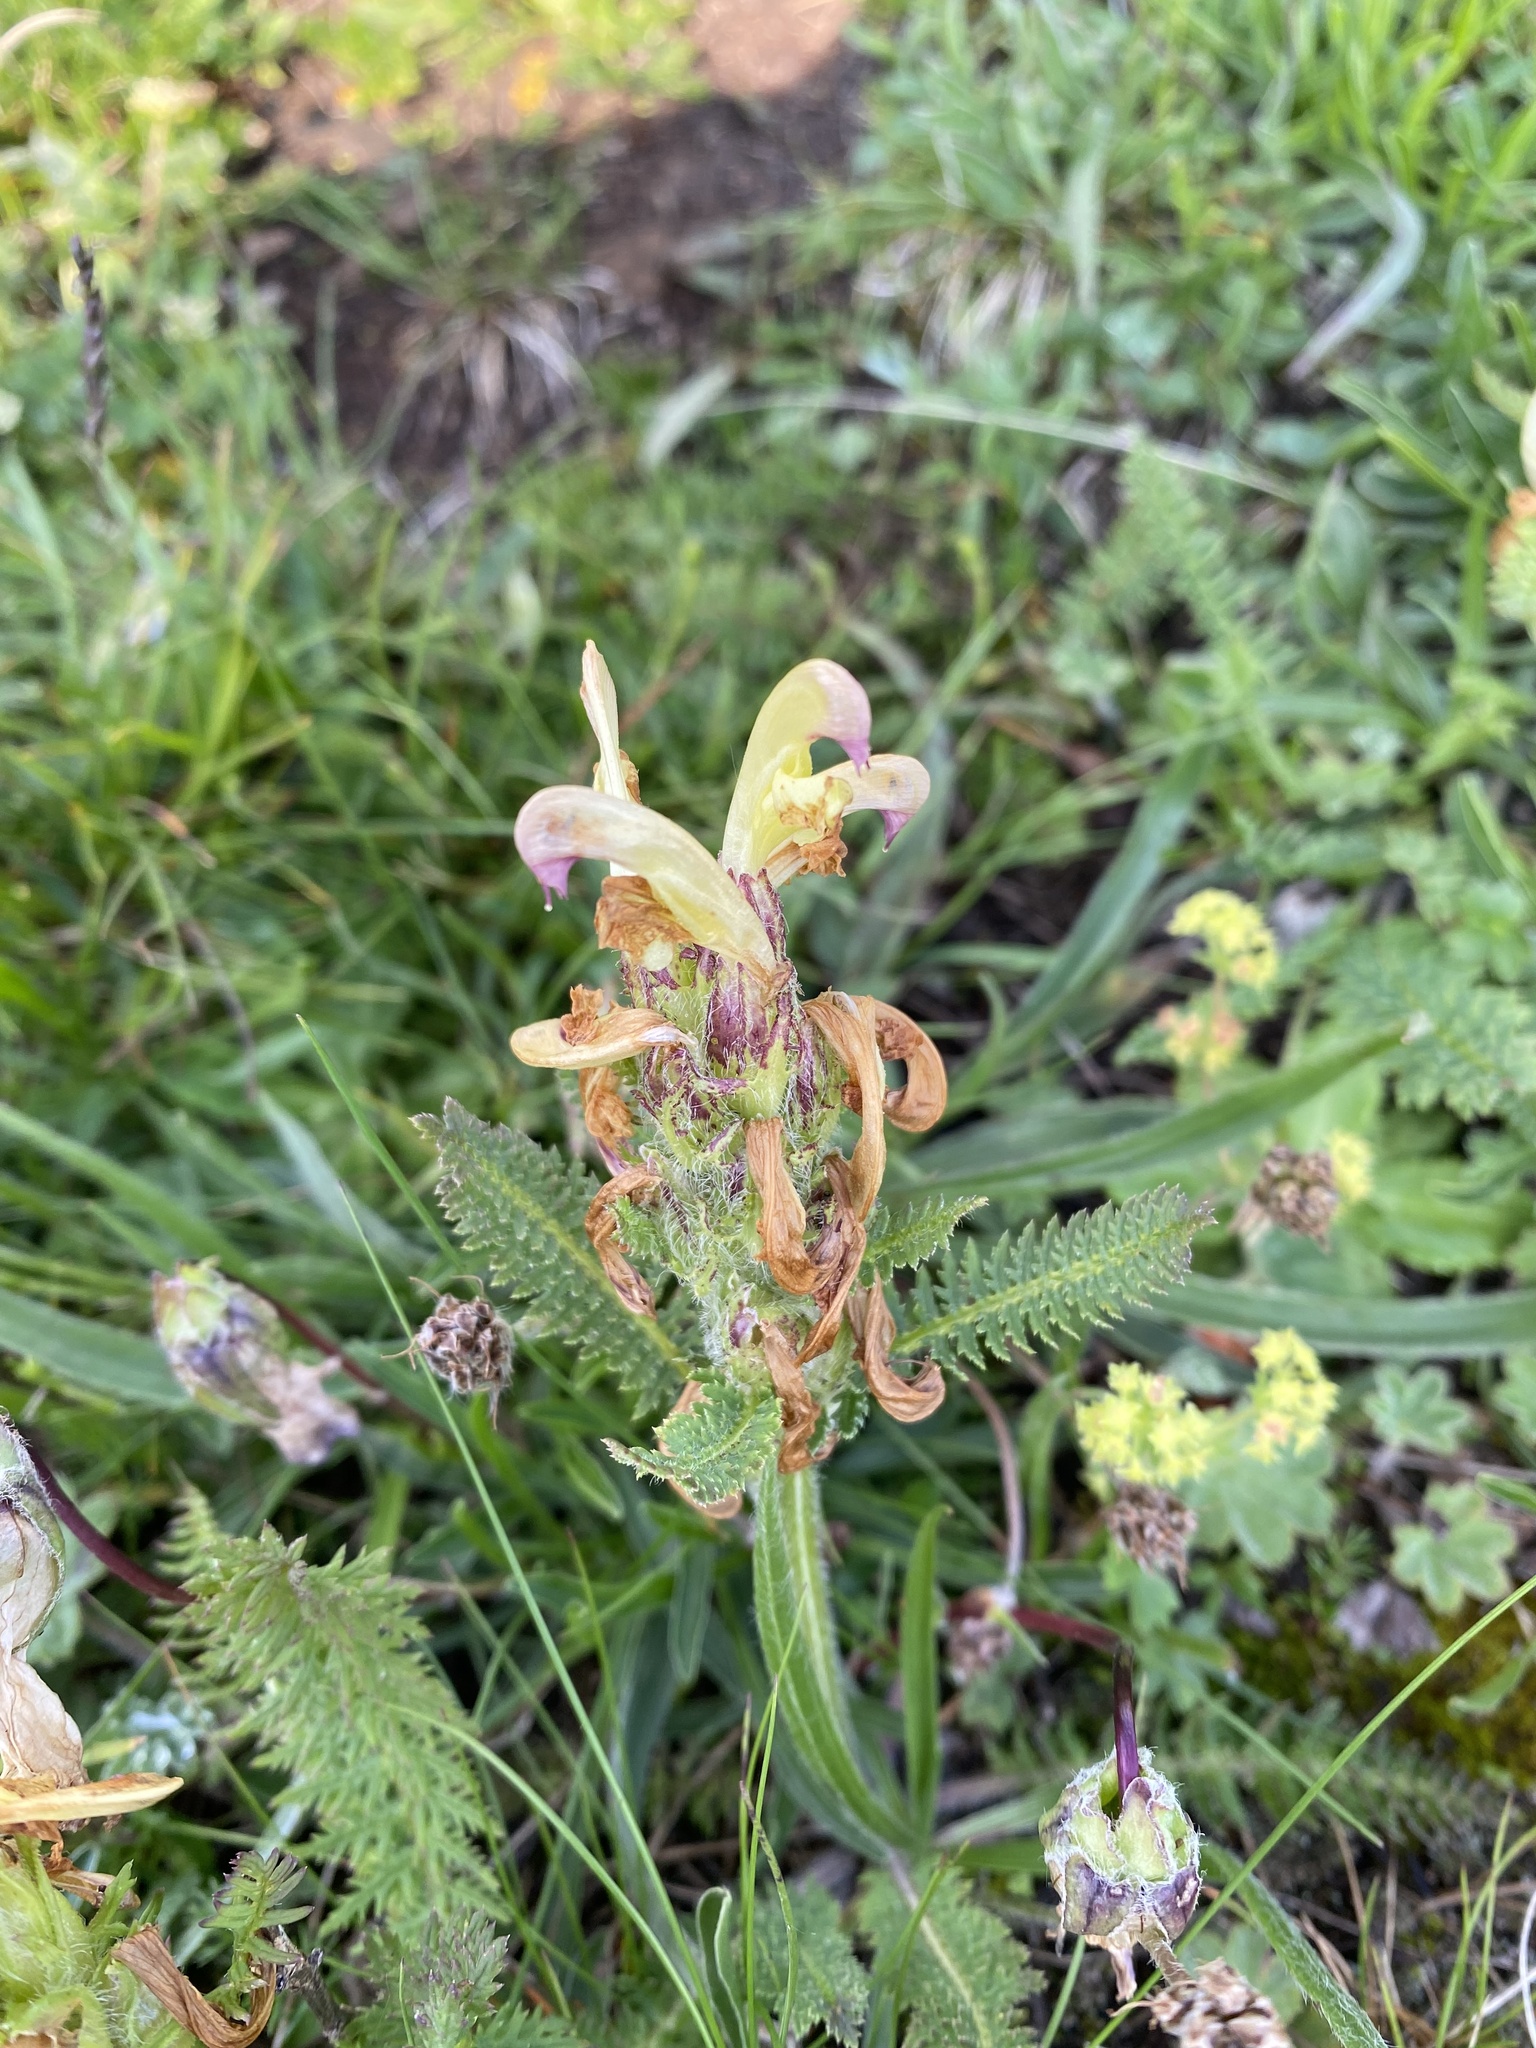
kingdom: Plantae
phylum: Tracheophyta
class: Magnoliopsida
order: Lamiales
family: Orobanchaceae
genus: Pedicularis
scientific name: Pedicularis chroorrhyncha
